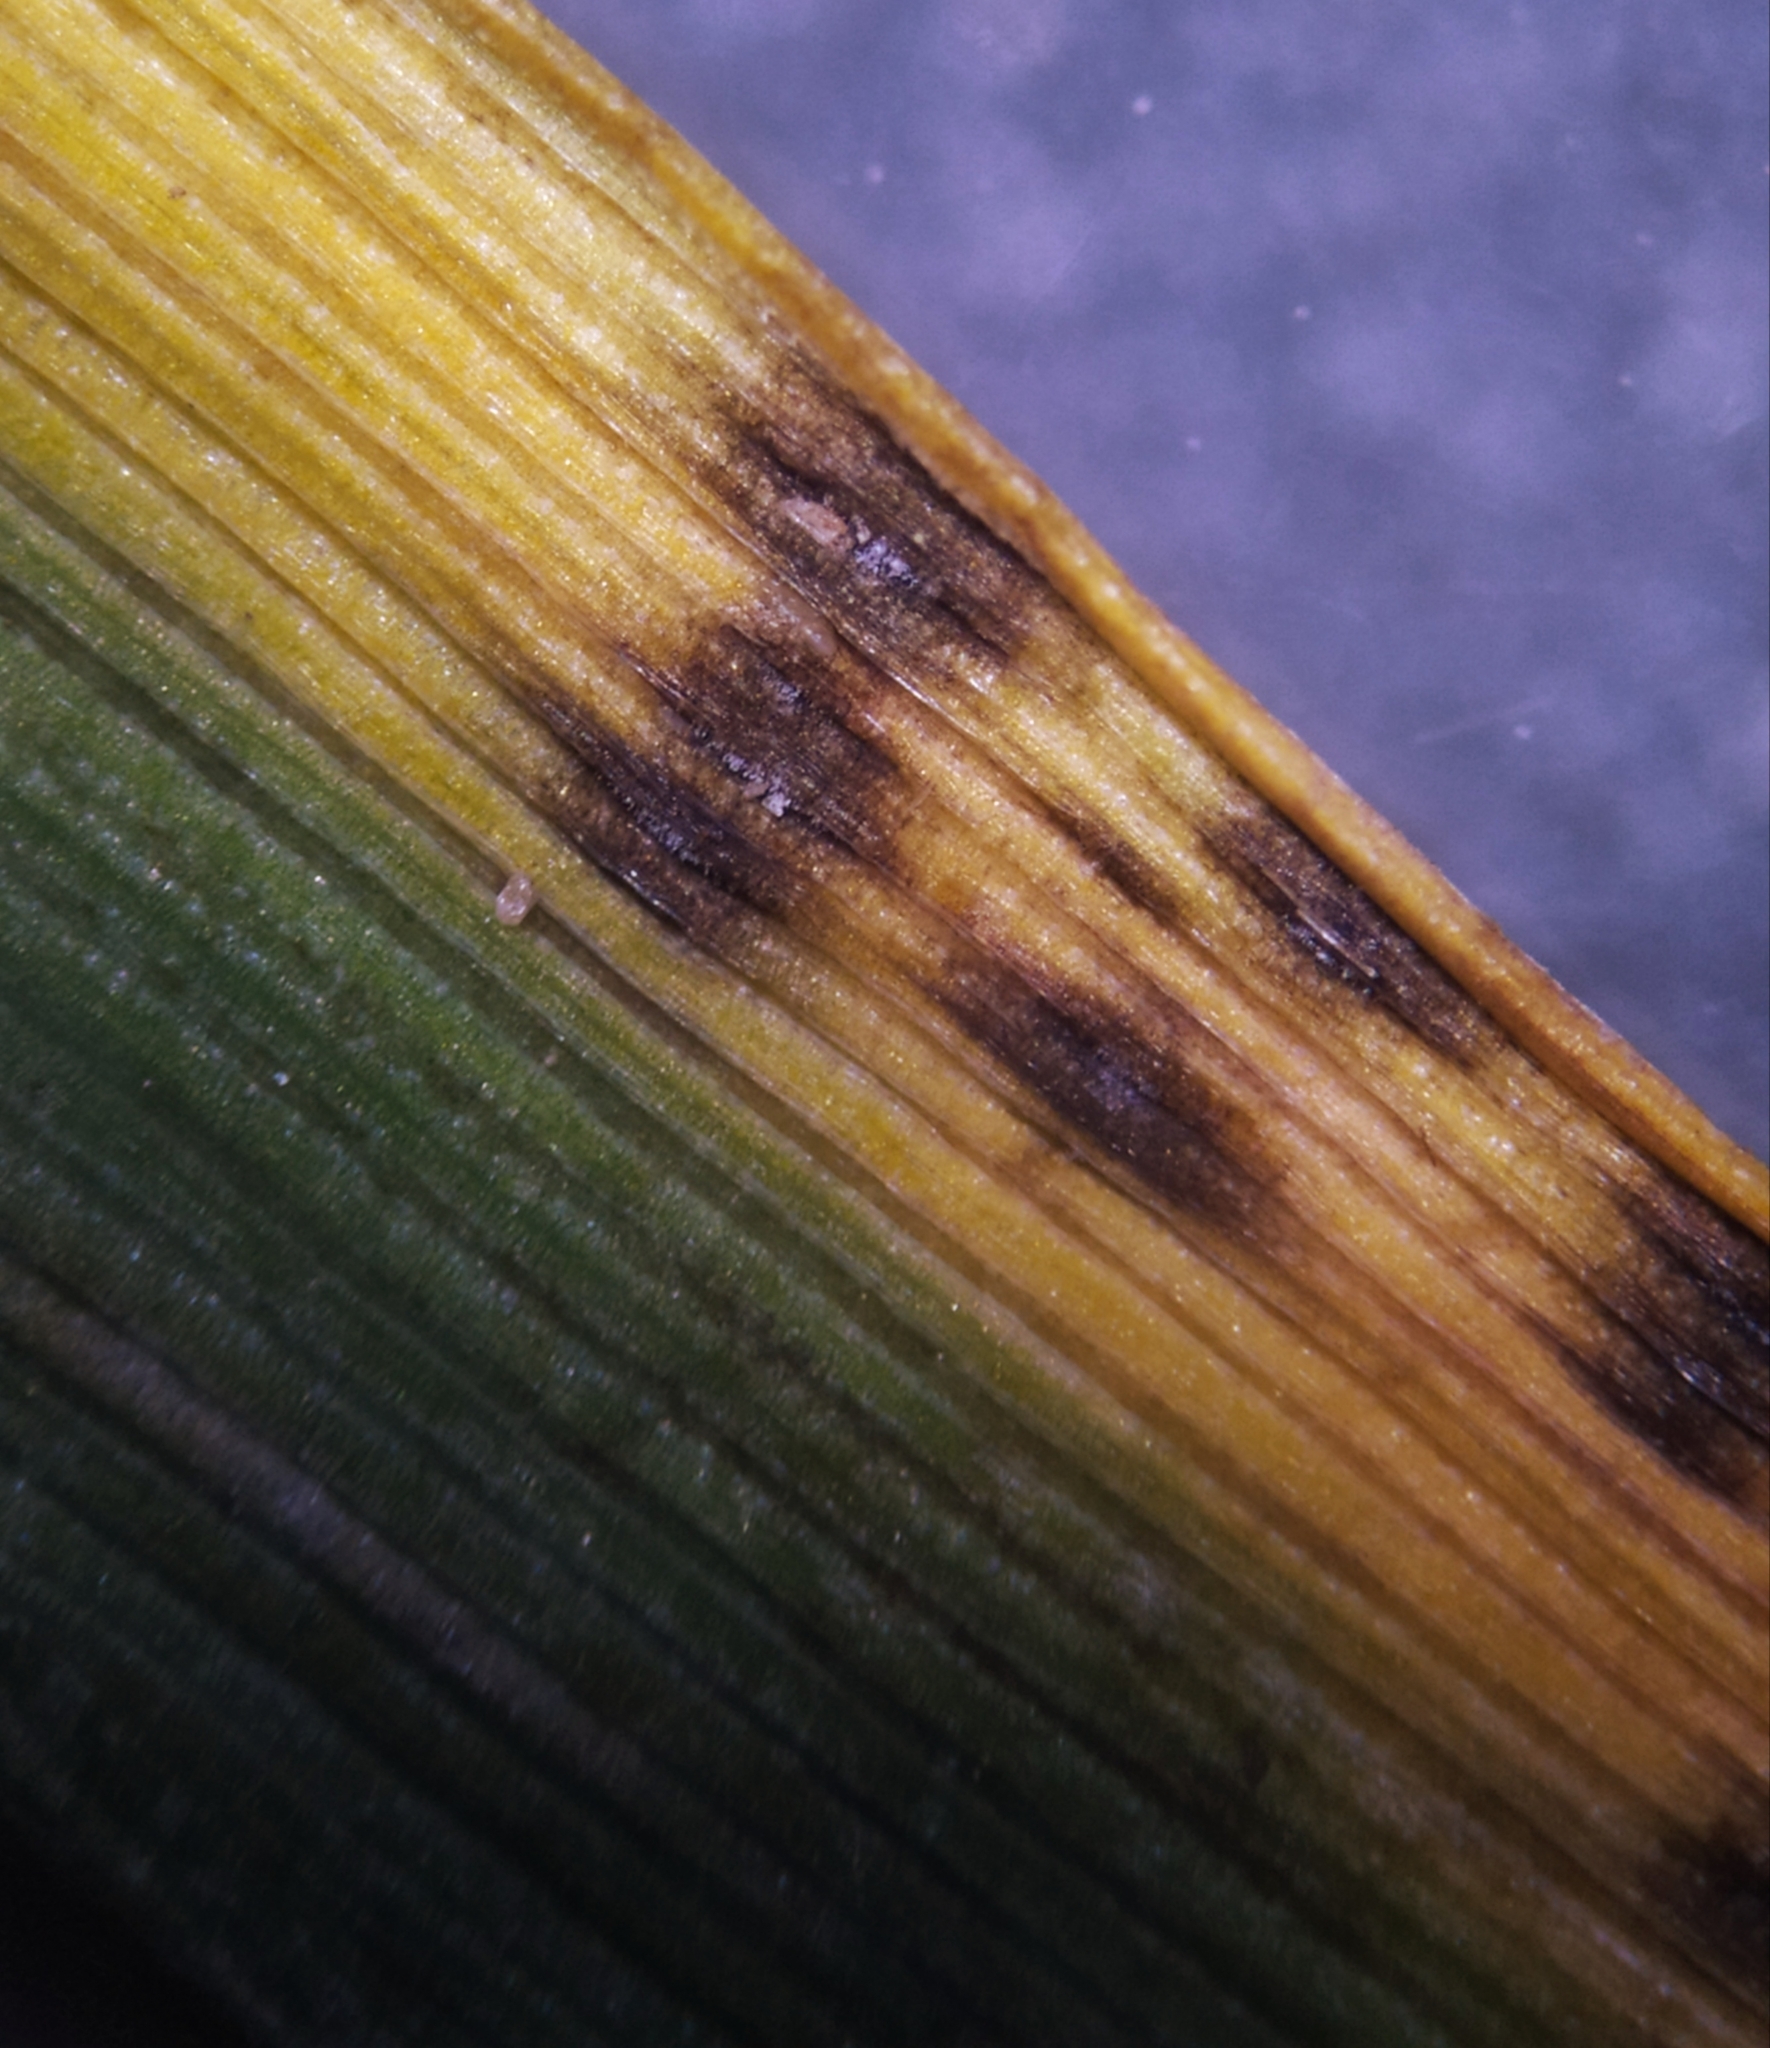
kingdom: Fungi
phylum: Ascomycota
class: Leotiomycetes
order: Helotiales
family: Ploettnerulaceae
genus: Mastigosporium
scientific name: Mastigosporium album
